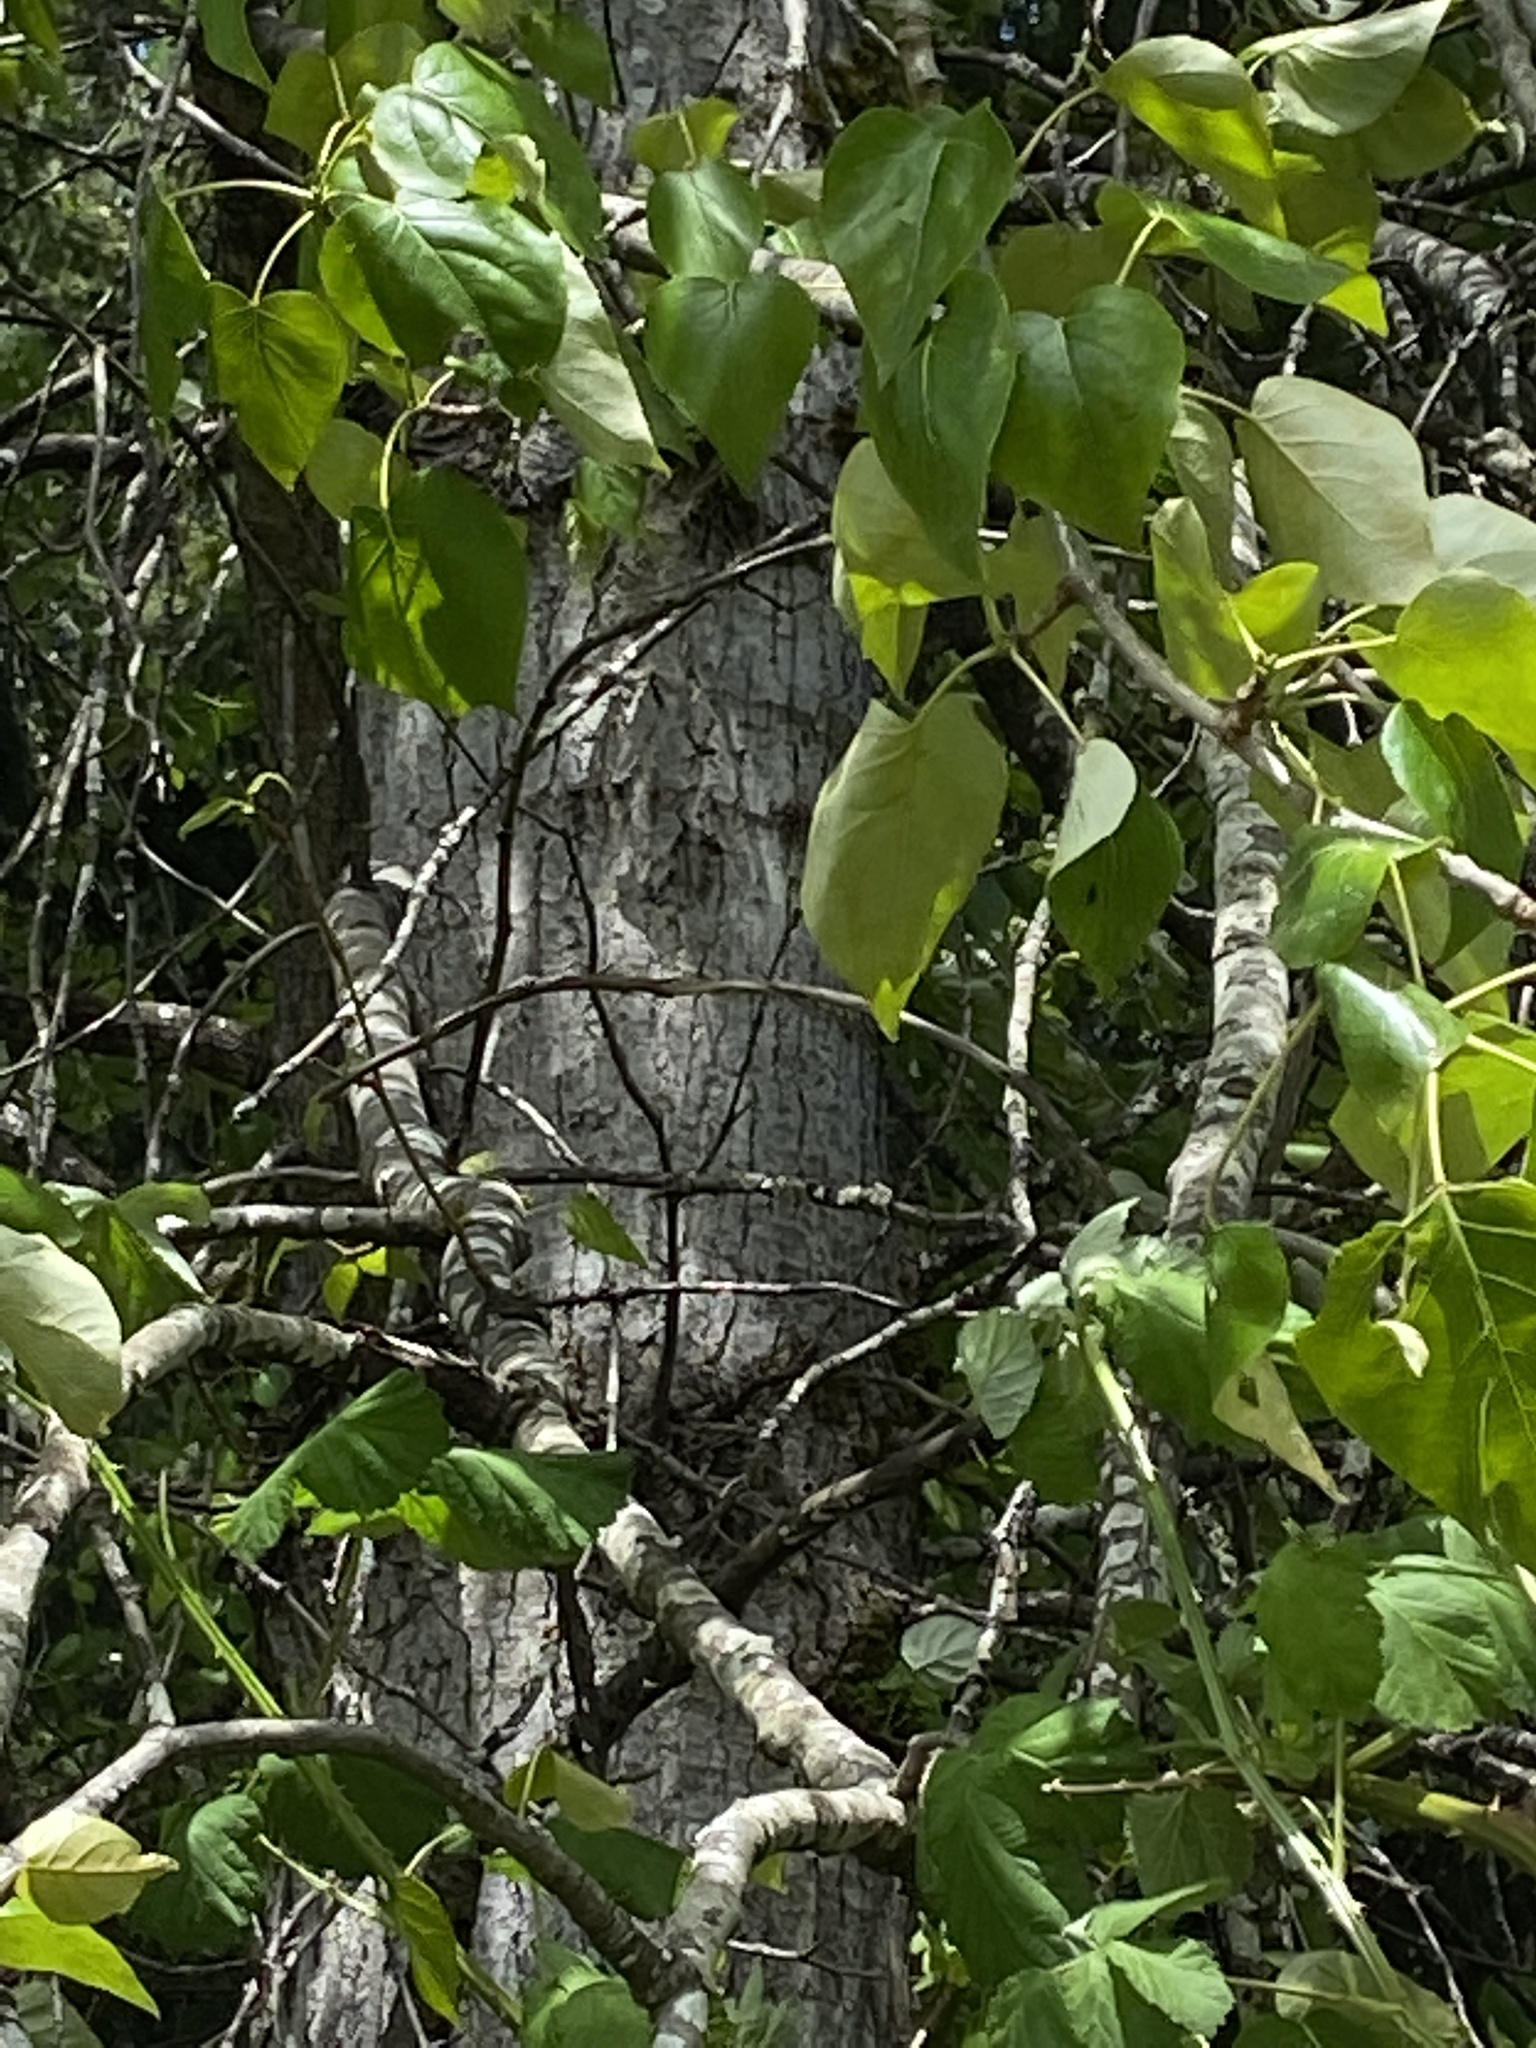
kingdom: Plantae
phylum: Tracheophyta
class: Magnoliopsida
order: Malpighiales
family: Salicaceae
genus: Populus
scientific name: Populus trichocarpa
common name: Black cottonwood
